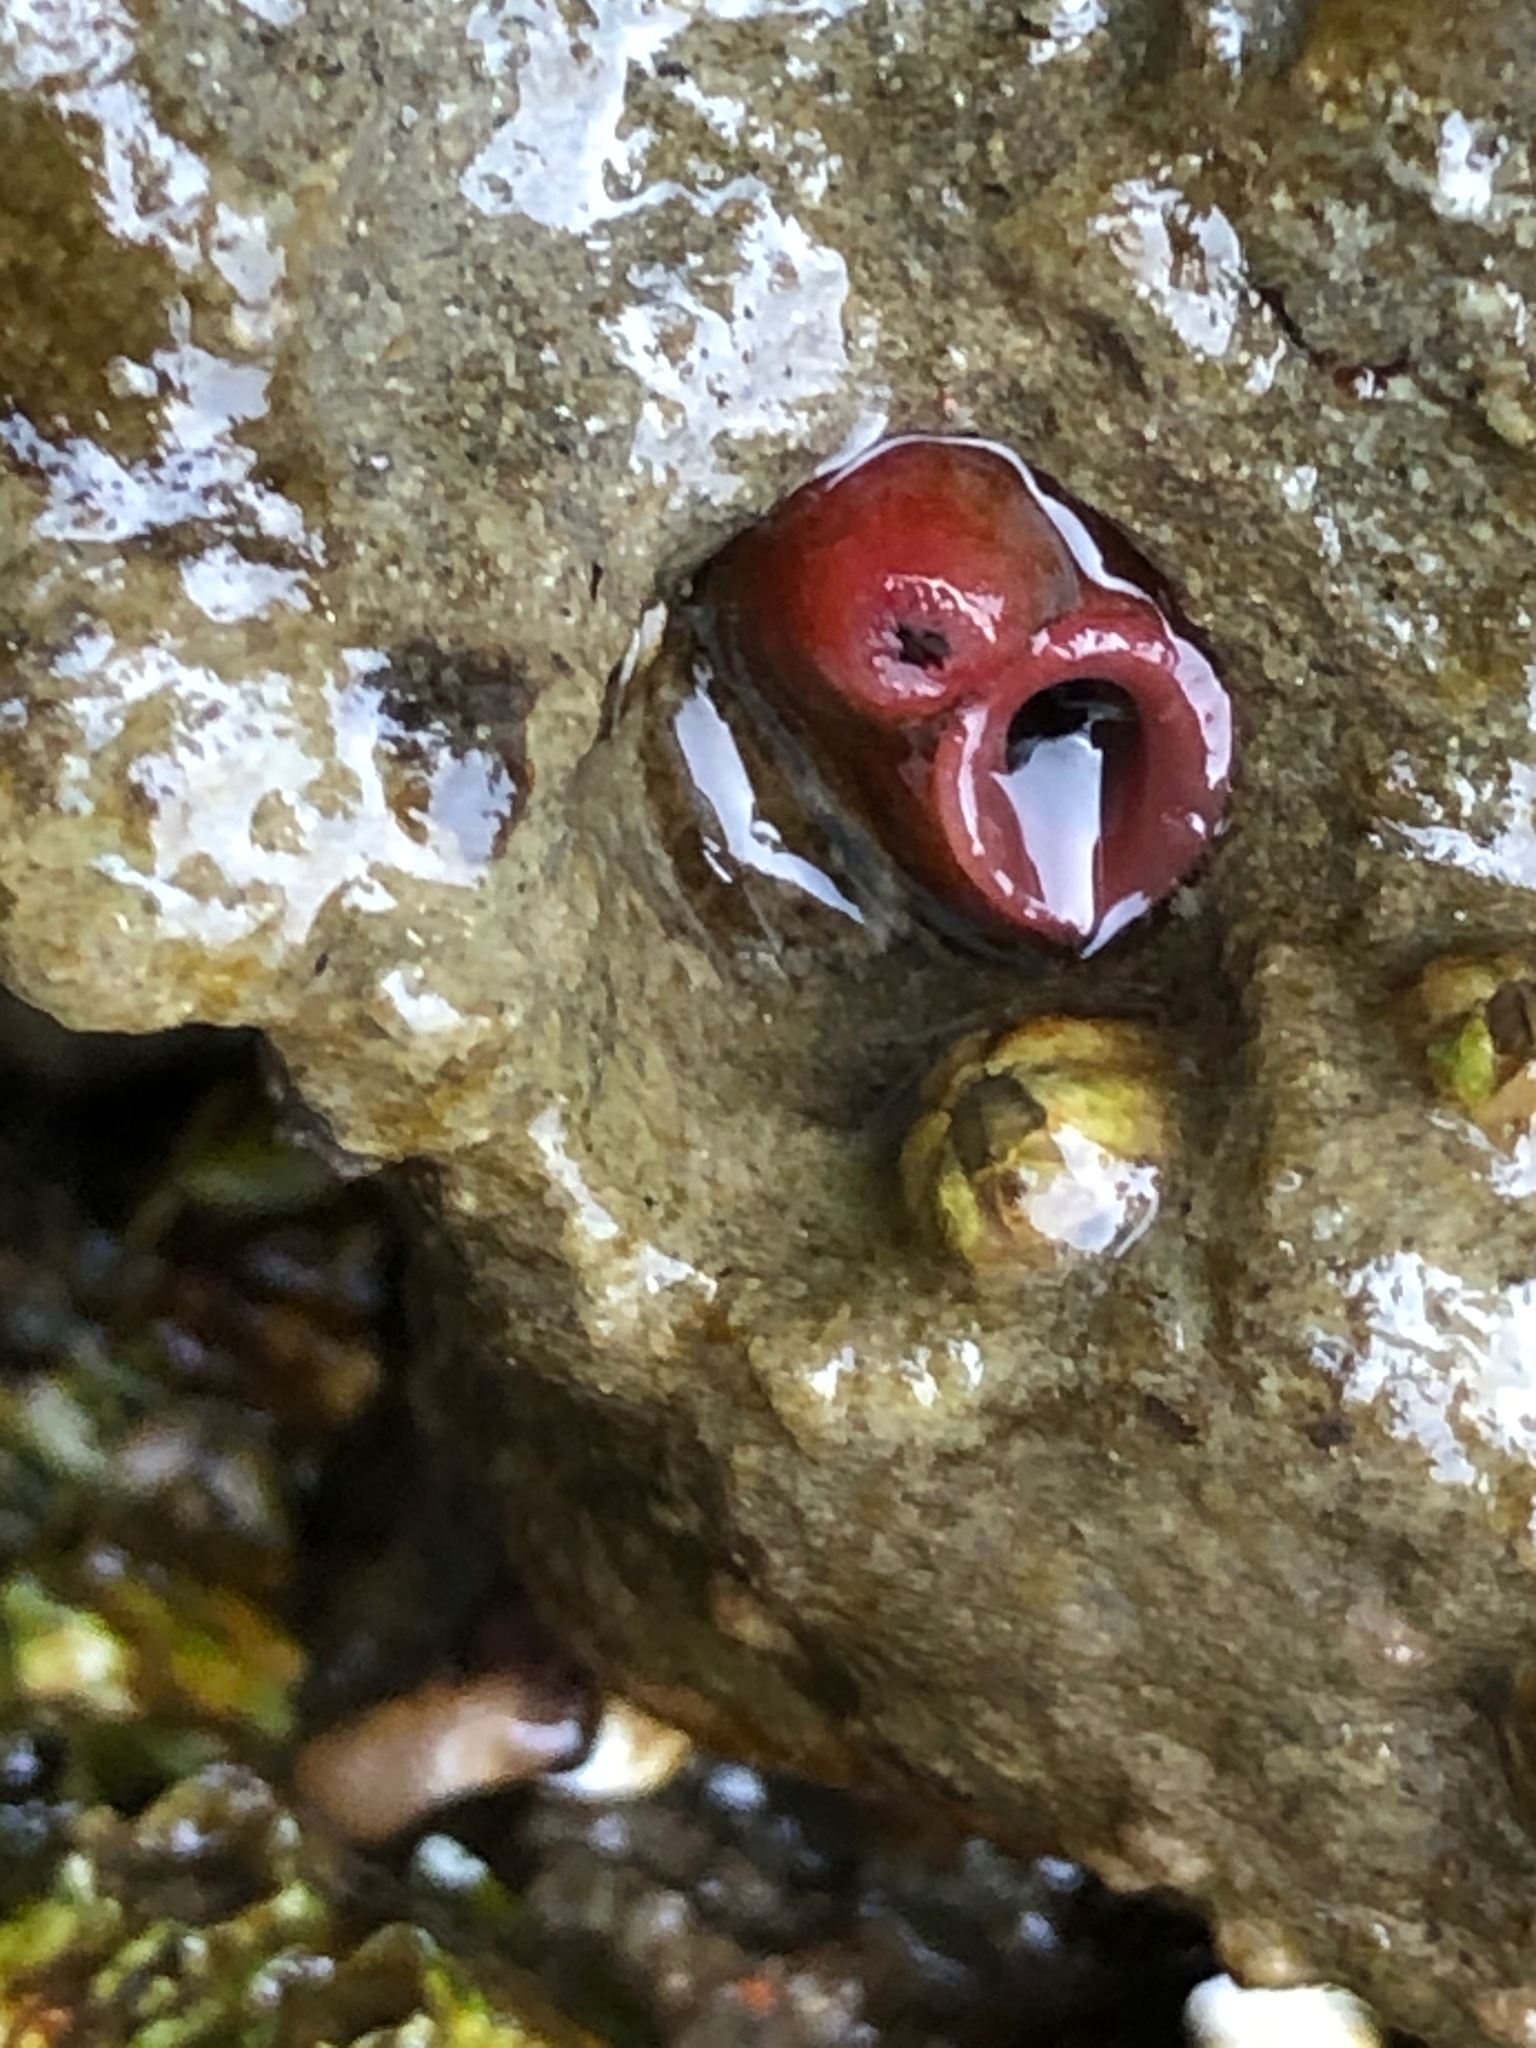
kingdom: Animalia
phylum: Mollusca
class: Bivalvia
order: Adapedonta
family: Hiatellidae
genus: Hiatella
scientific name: Hiatella arctica
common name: Arctic hiatella
